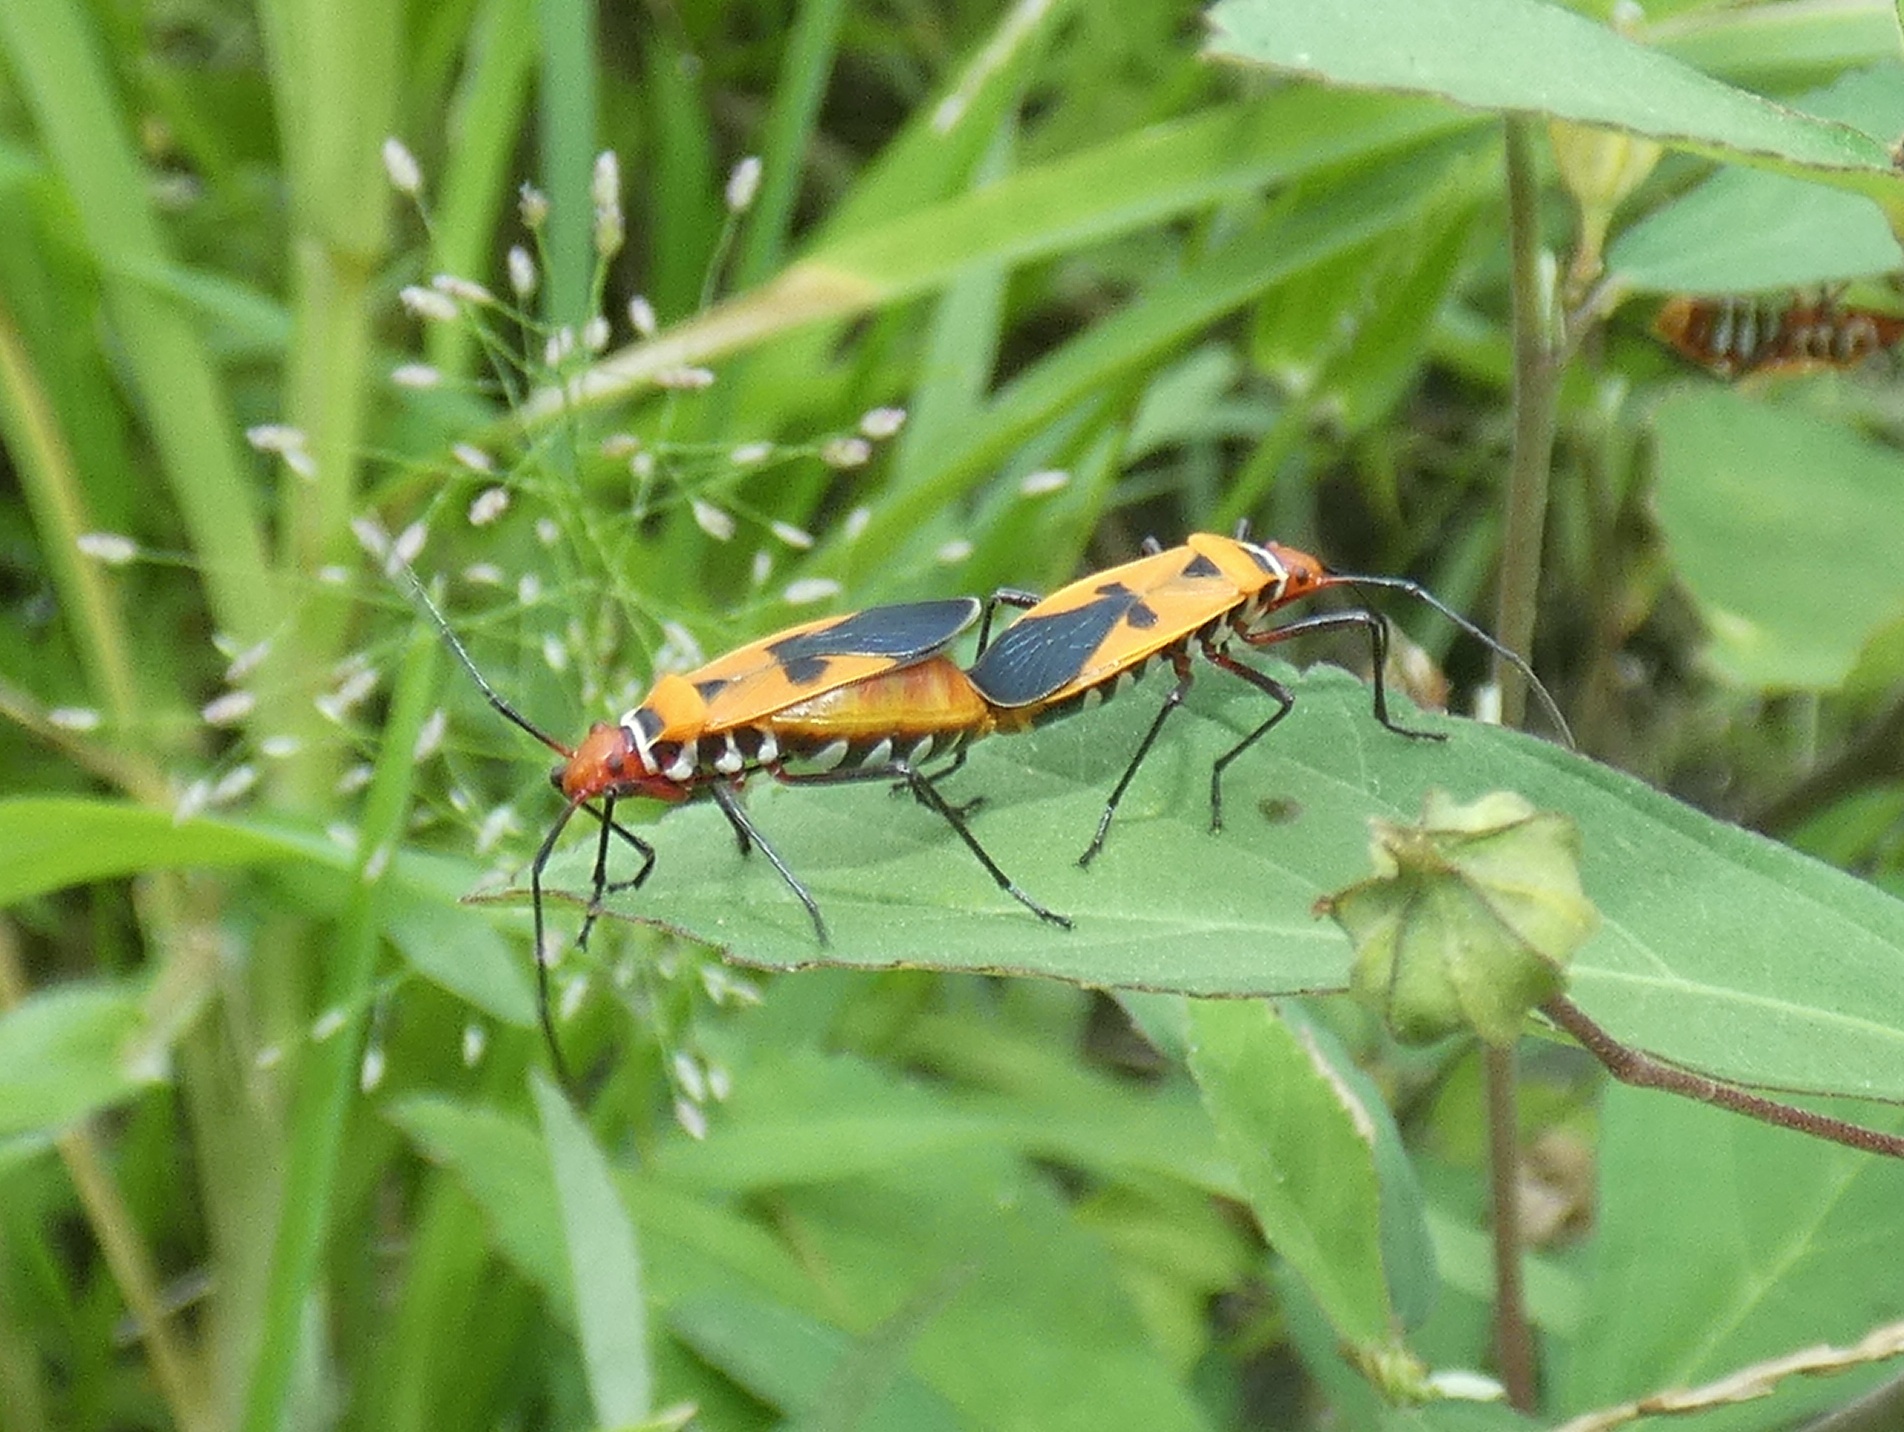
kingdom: Animalia
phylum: Arthropoda
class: Insecta
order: Hemiptera
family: Pyrrhocoridae
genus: Dysdercus
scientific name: Dysdercus poecilus
